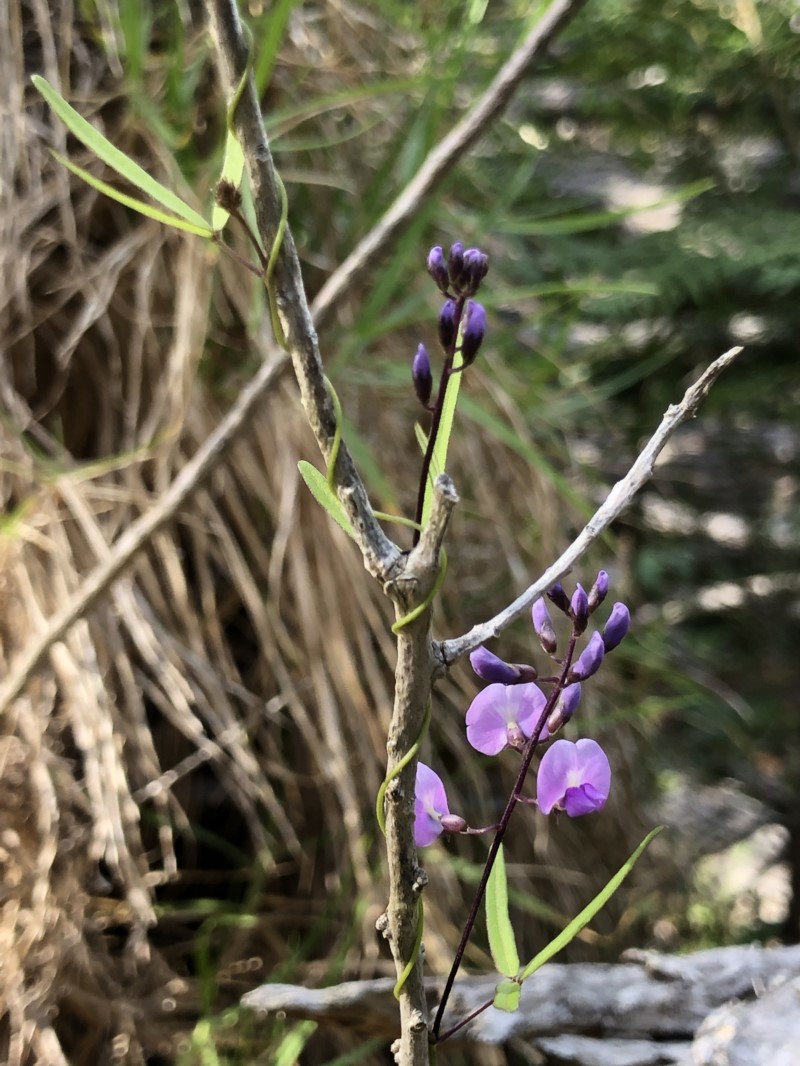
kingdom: Plantae
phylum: Tracheophyta
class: Magnoliopsida
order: Fabales
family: Fabaceae
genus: Glycine
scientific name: Glycine clandestina
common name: Twining glycine
